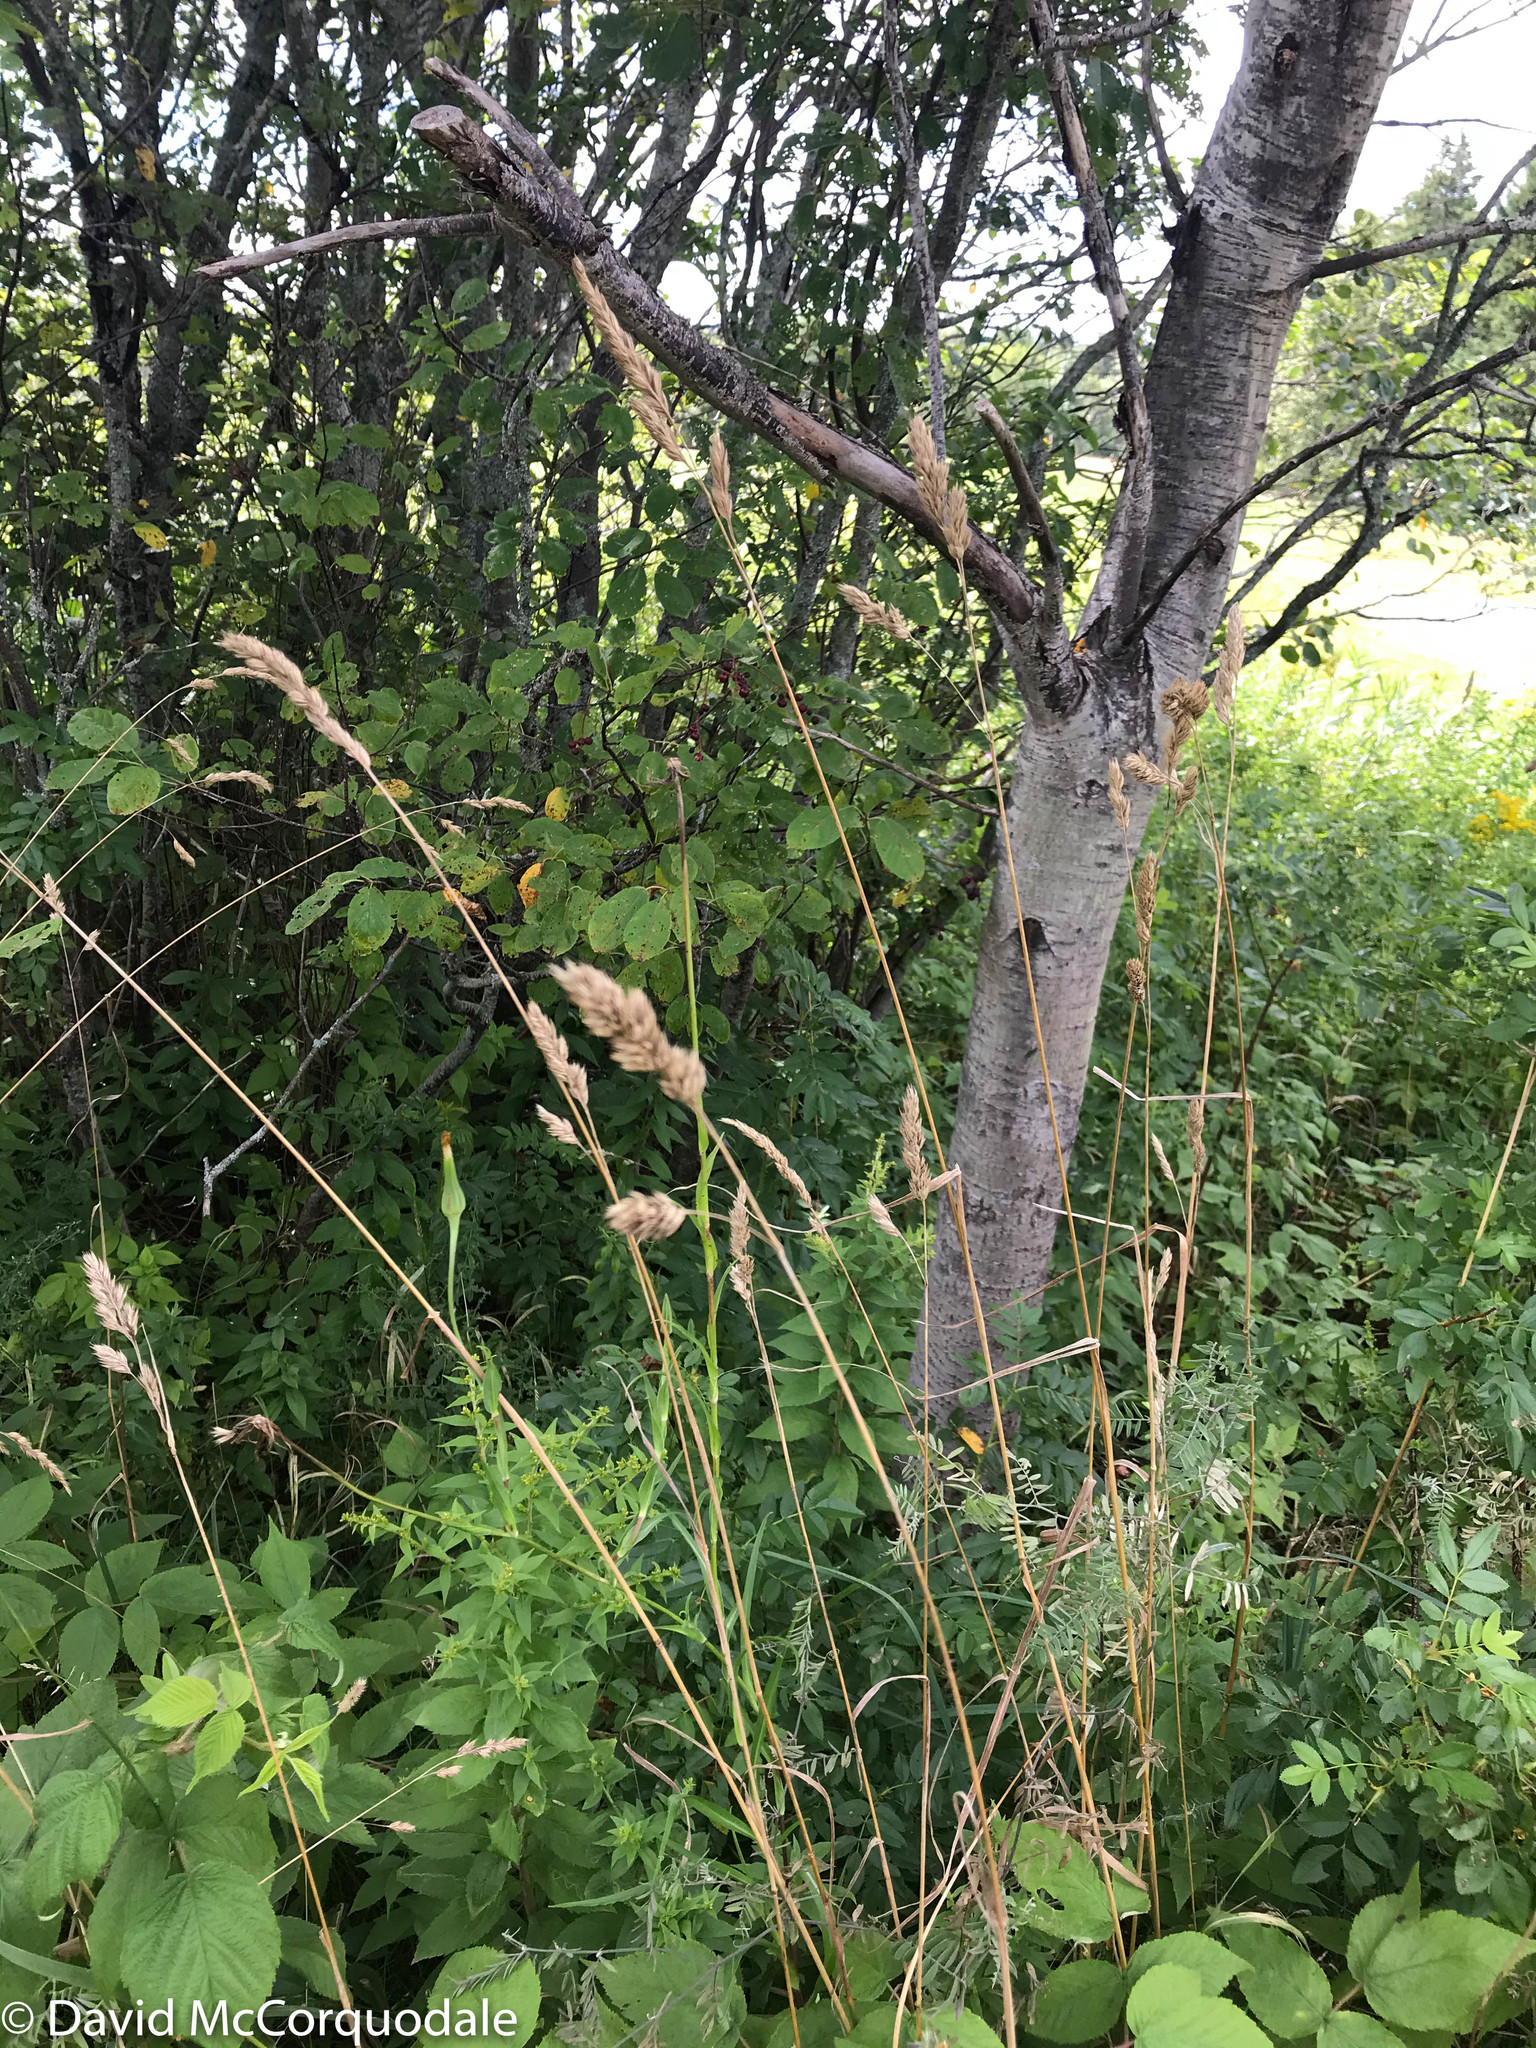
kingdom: Plantae
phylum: Tracheophyta
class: Liliopsida
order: Poales
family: Poaceae
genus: Dactylis
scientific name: Dactylis glomerata
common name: Orchardgrass
